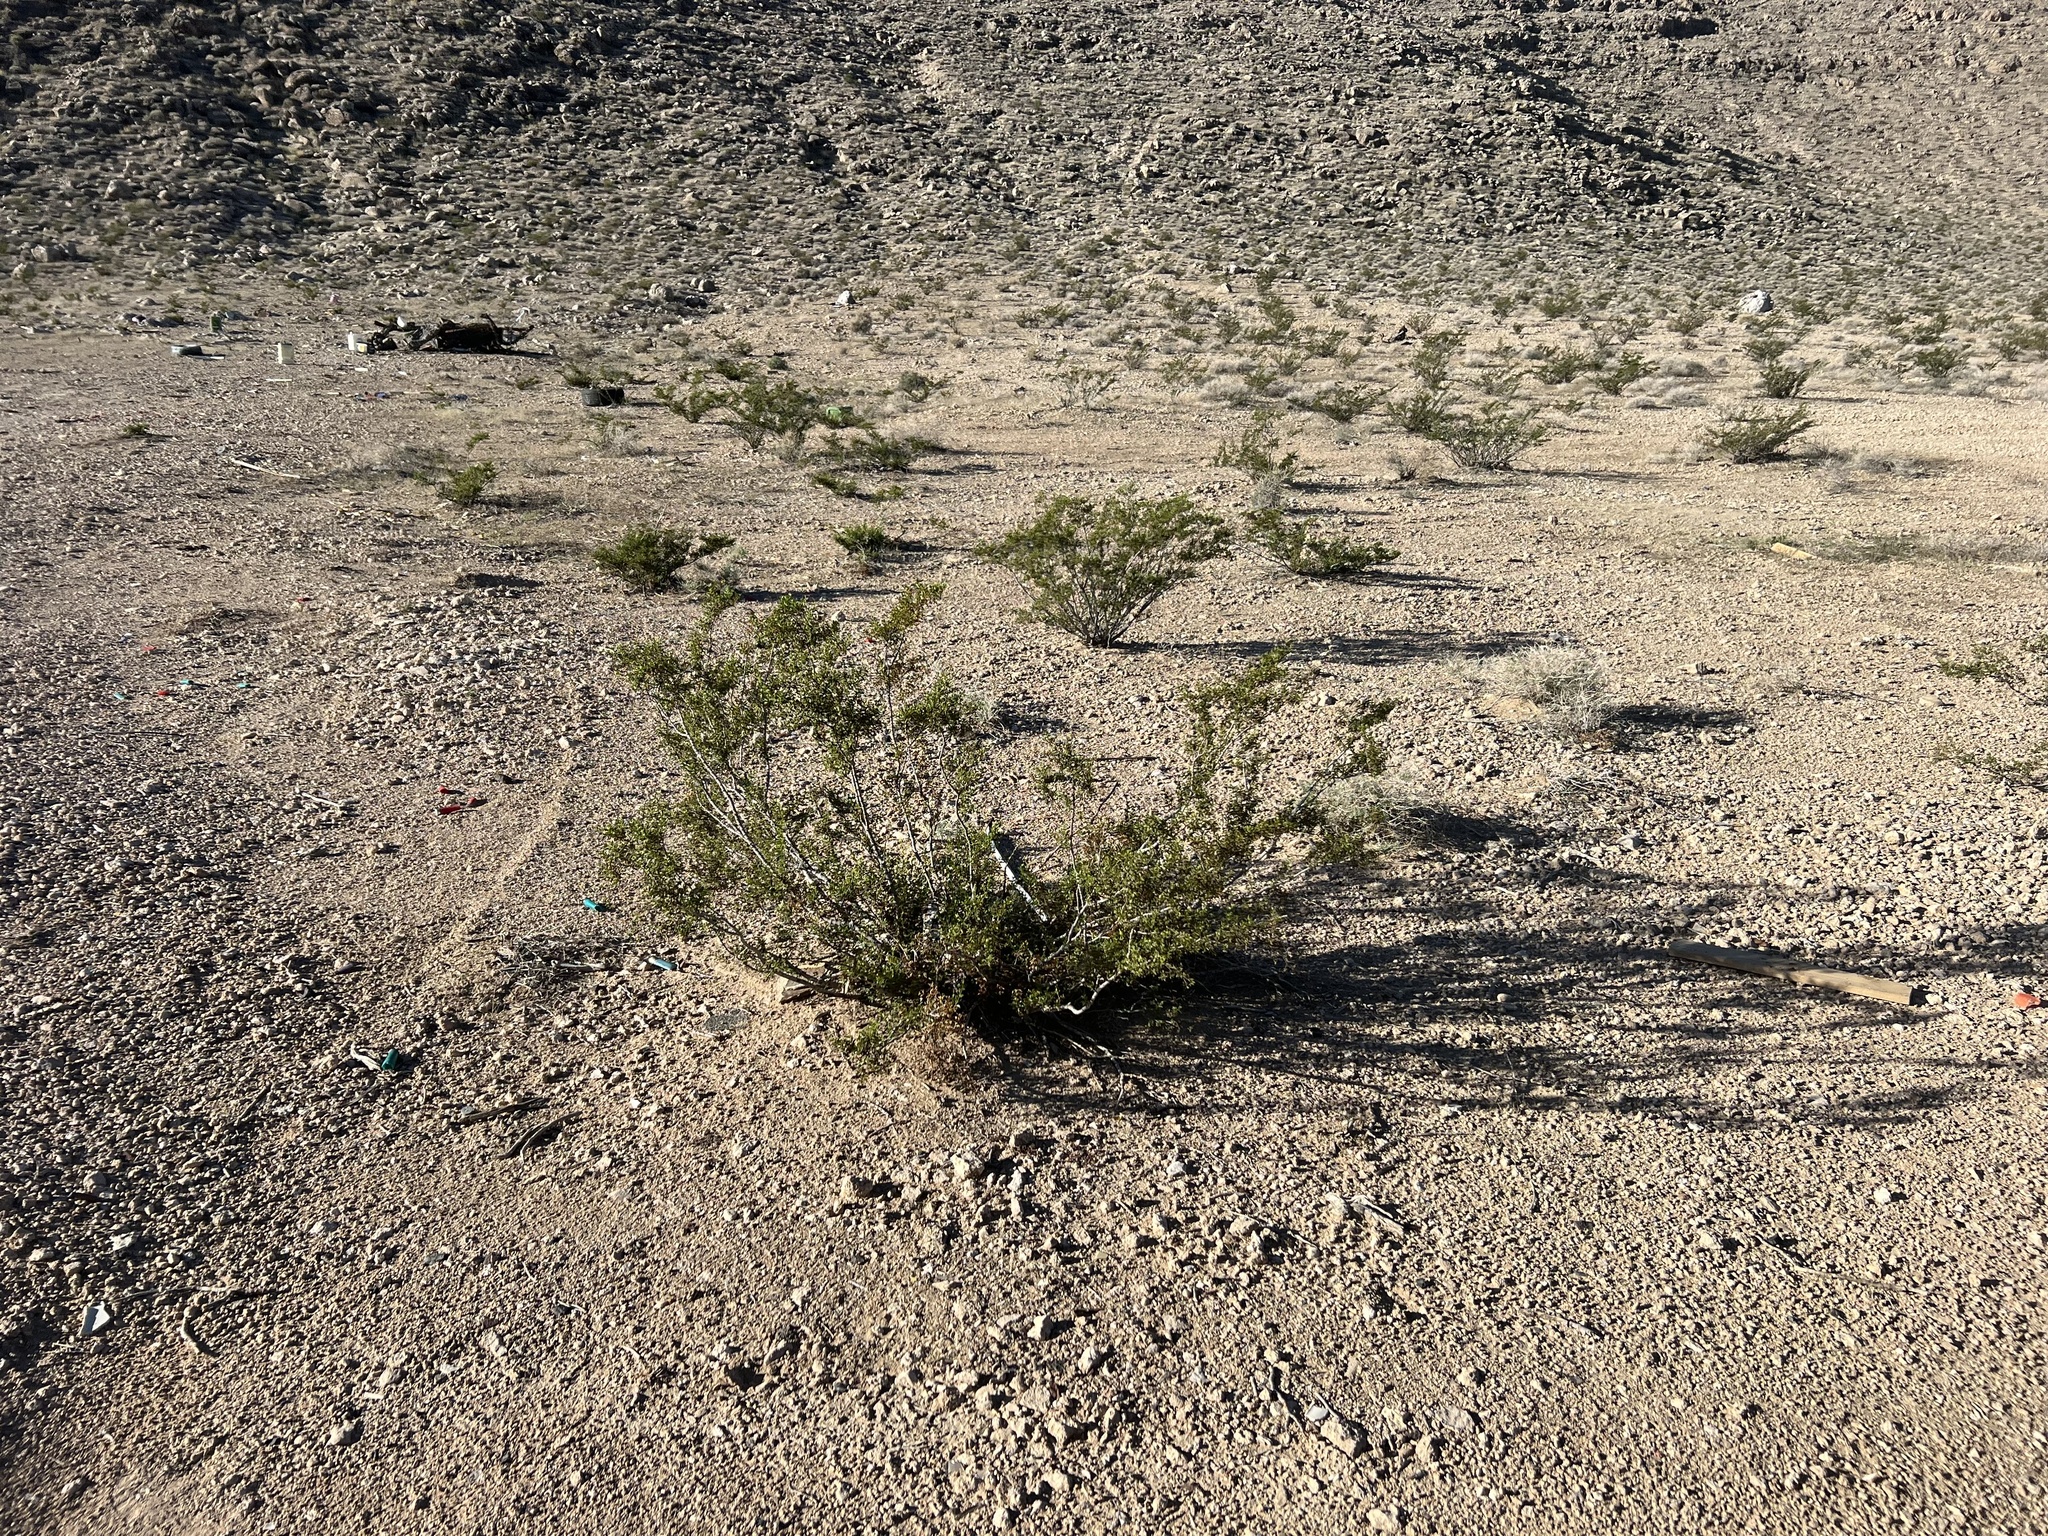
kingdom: Plantae
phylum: Tracheophyta
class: Magnoliopsida
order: Zygophyllales
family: Zygophyllaceae
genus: Larrea
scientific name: Larrea tridentata
